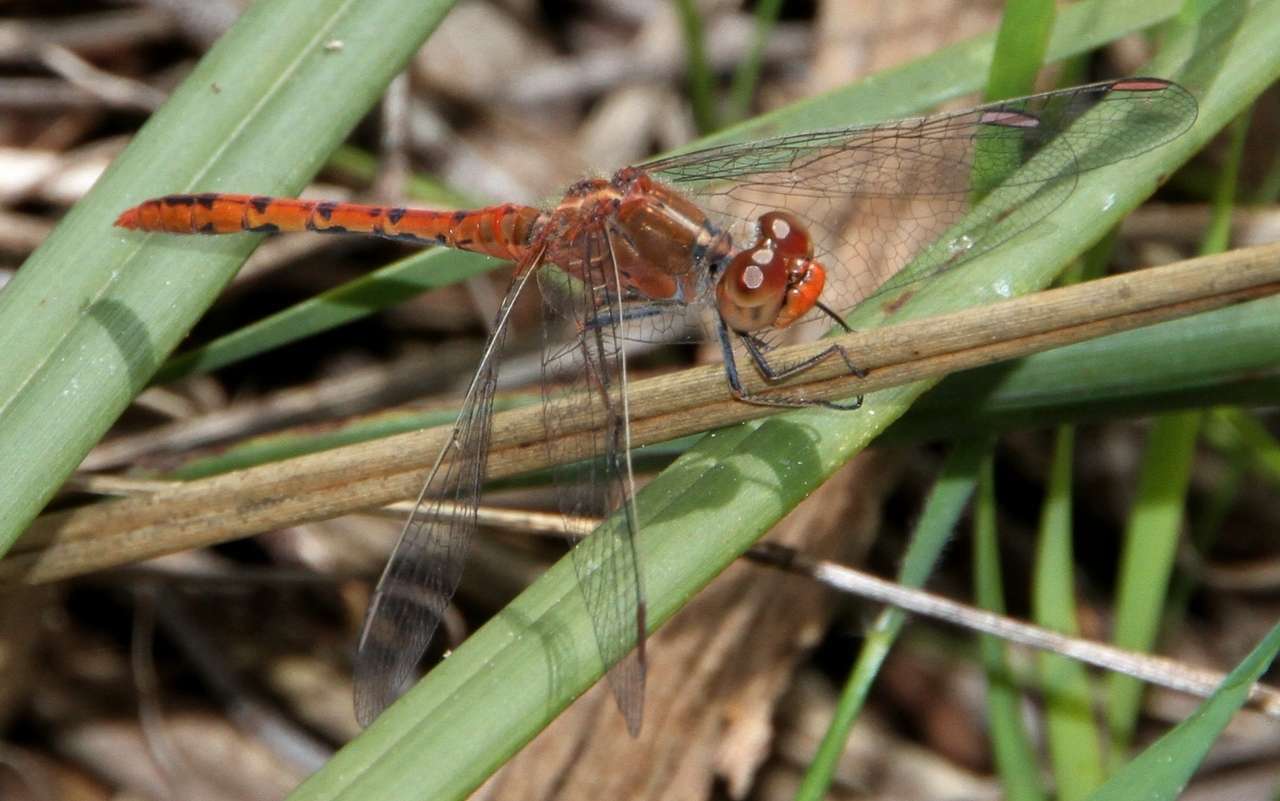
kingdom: Animalia
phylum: Arthropoda
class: Insecta
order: Odonata
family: Libellulidae
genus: Diplacodes
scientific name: Diplacodes bipunctata
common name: Red percher dragonfly
